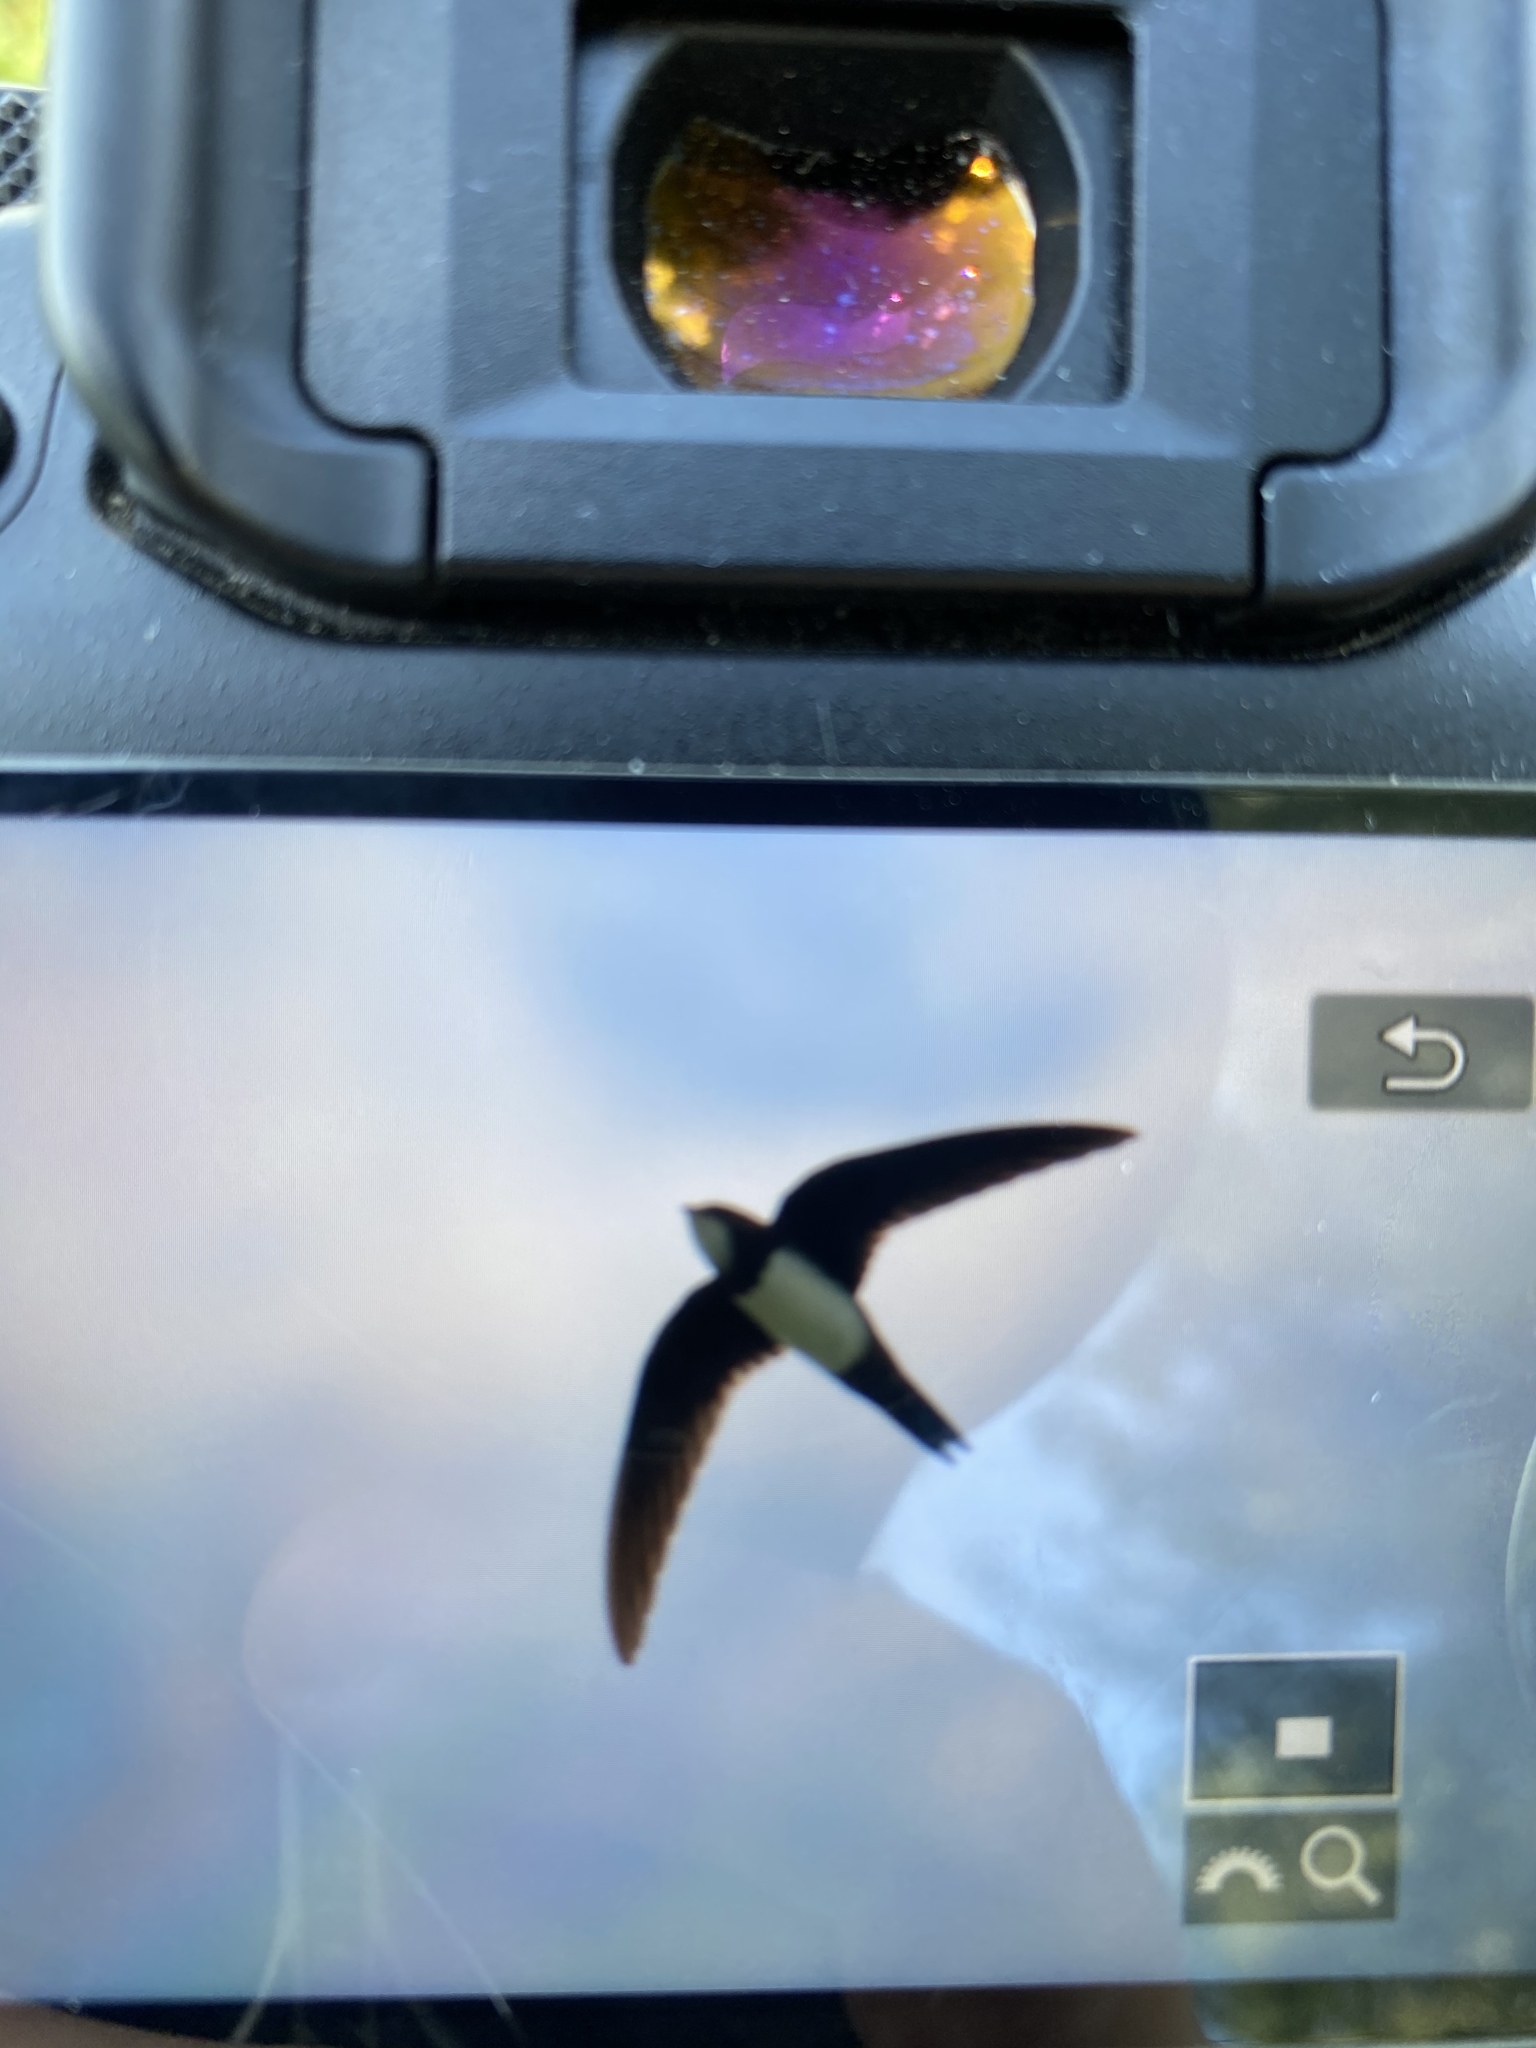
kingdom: Animalia
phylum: Chordata
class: Aves
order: Apodiformes
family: Apodidae
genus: Tachymarptis
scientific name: Tachymarptis melba
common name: Alpine swift
